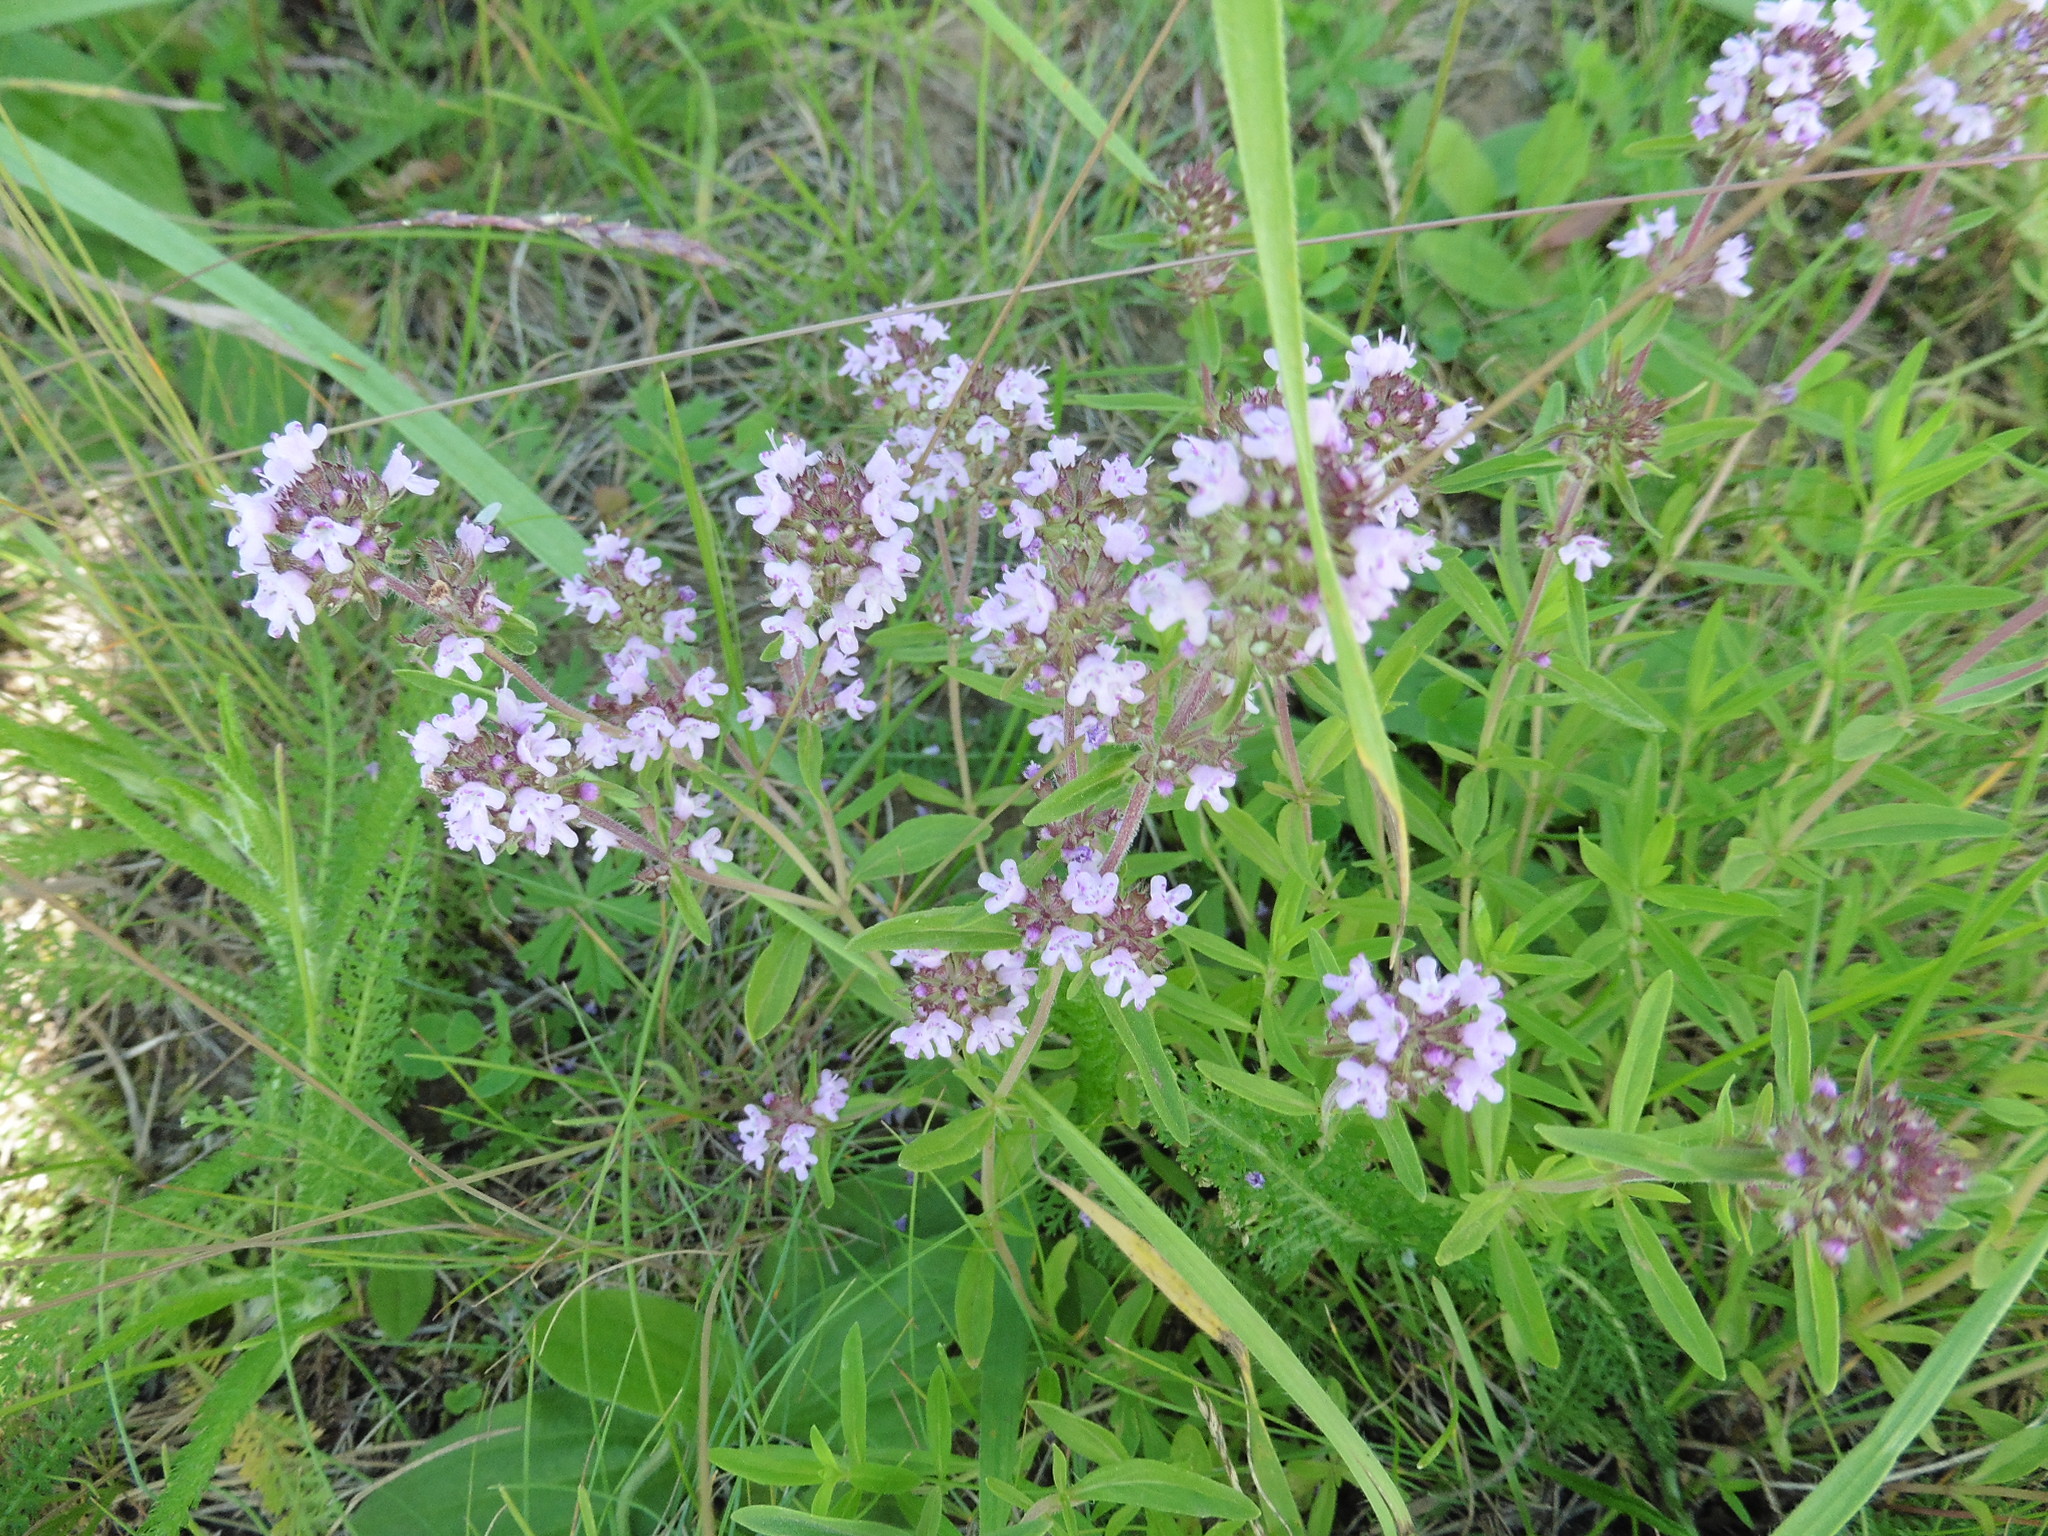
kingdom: Plantae
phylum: Tracheophyta
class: Magnoliopsida
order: Lamiales
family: Lamiaceae
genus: Thymus
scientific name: Thymus pannonicus
